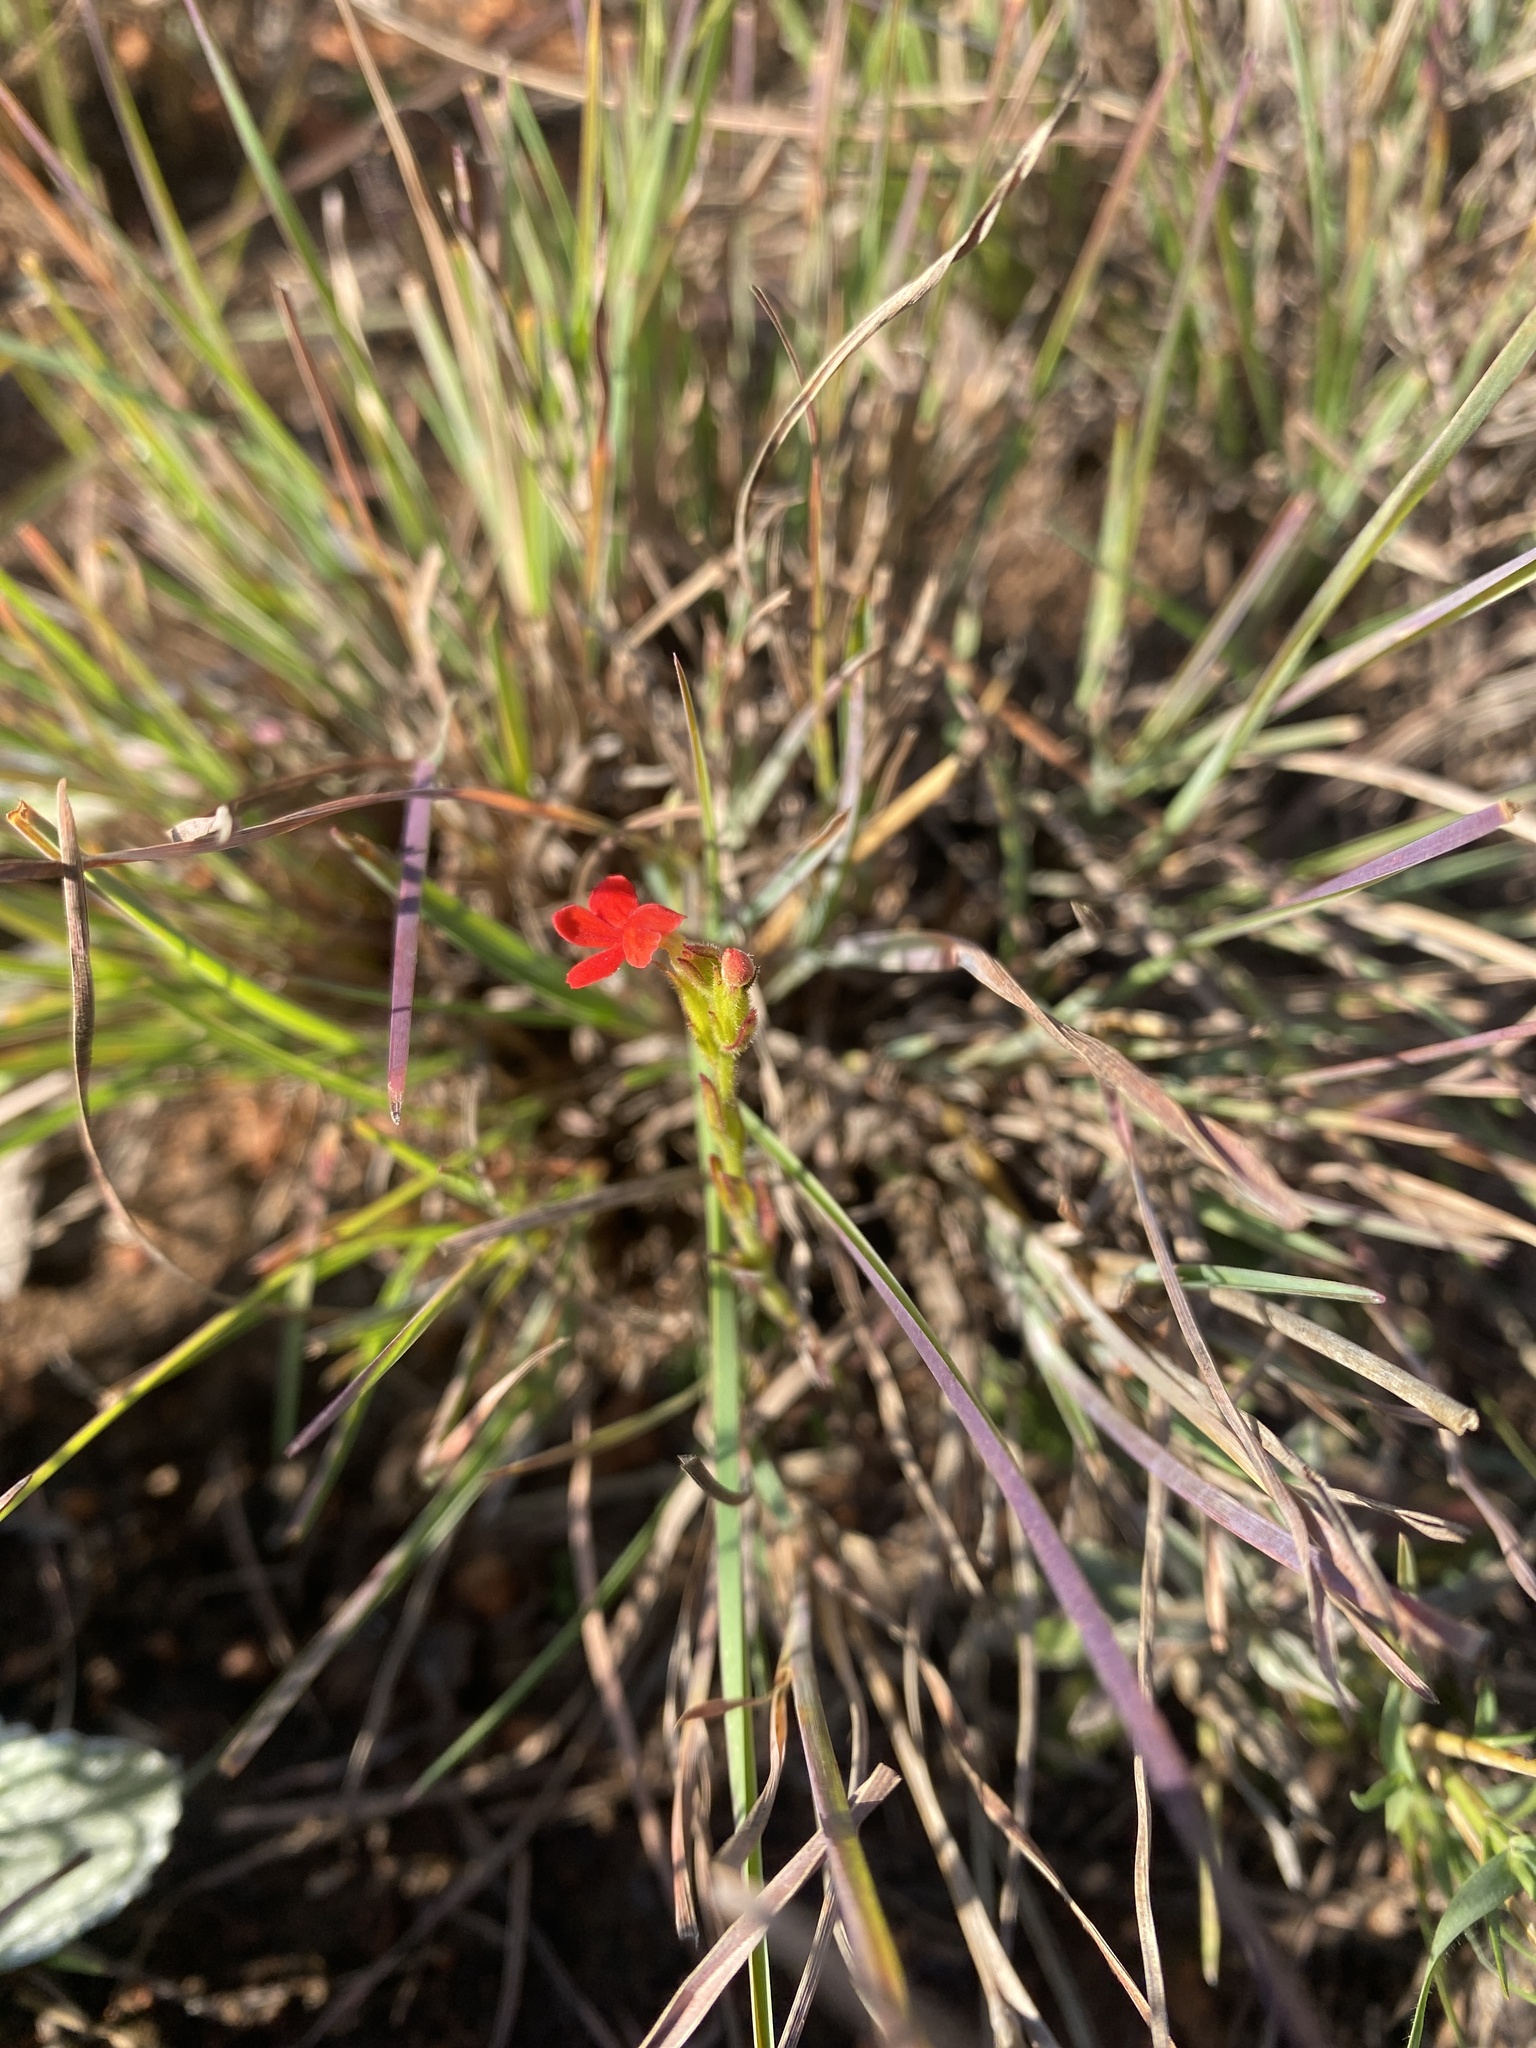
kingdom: Plantae
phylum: Tracheophyta
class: Magnoliopsida
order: Lamiales
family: Orobanchaceae
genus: Striga
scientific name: Striga elegans
